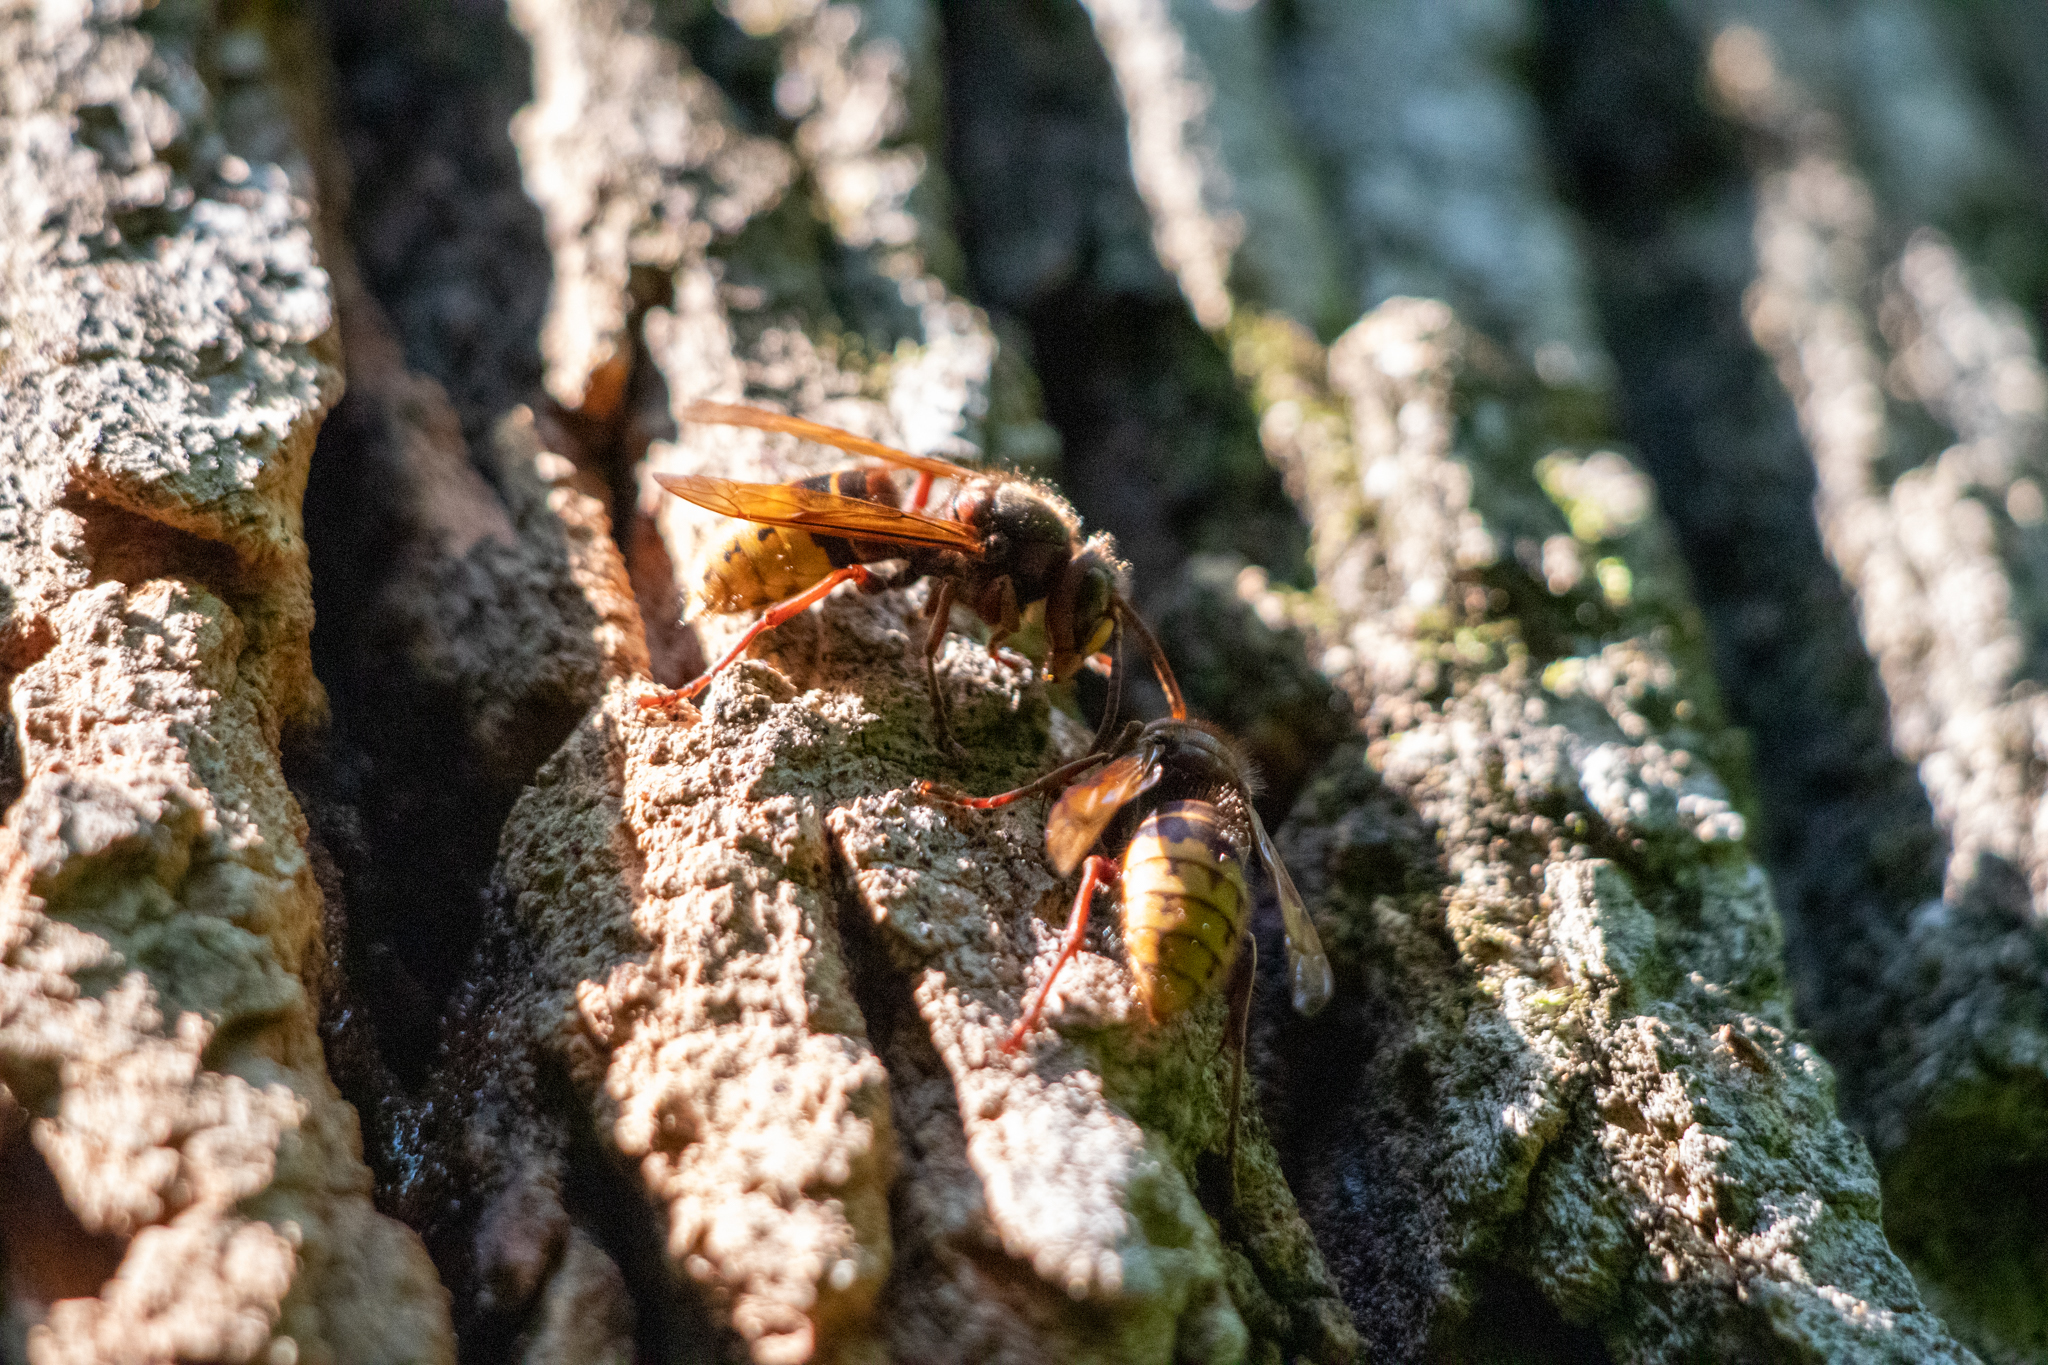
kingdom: Animalia
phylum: Arthropoda
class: Insecta
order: Hymenoptera
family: Vespidae
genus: Vespa
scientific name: Vespa crabro
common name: Hornet
